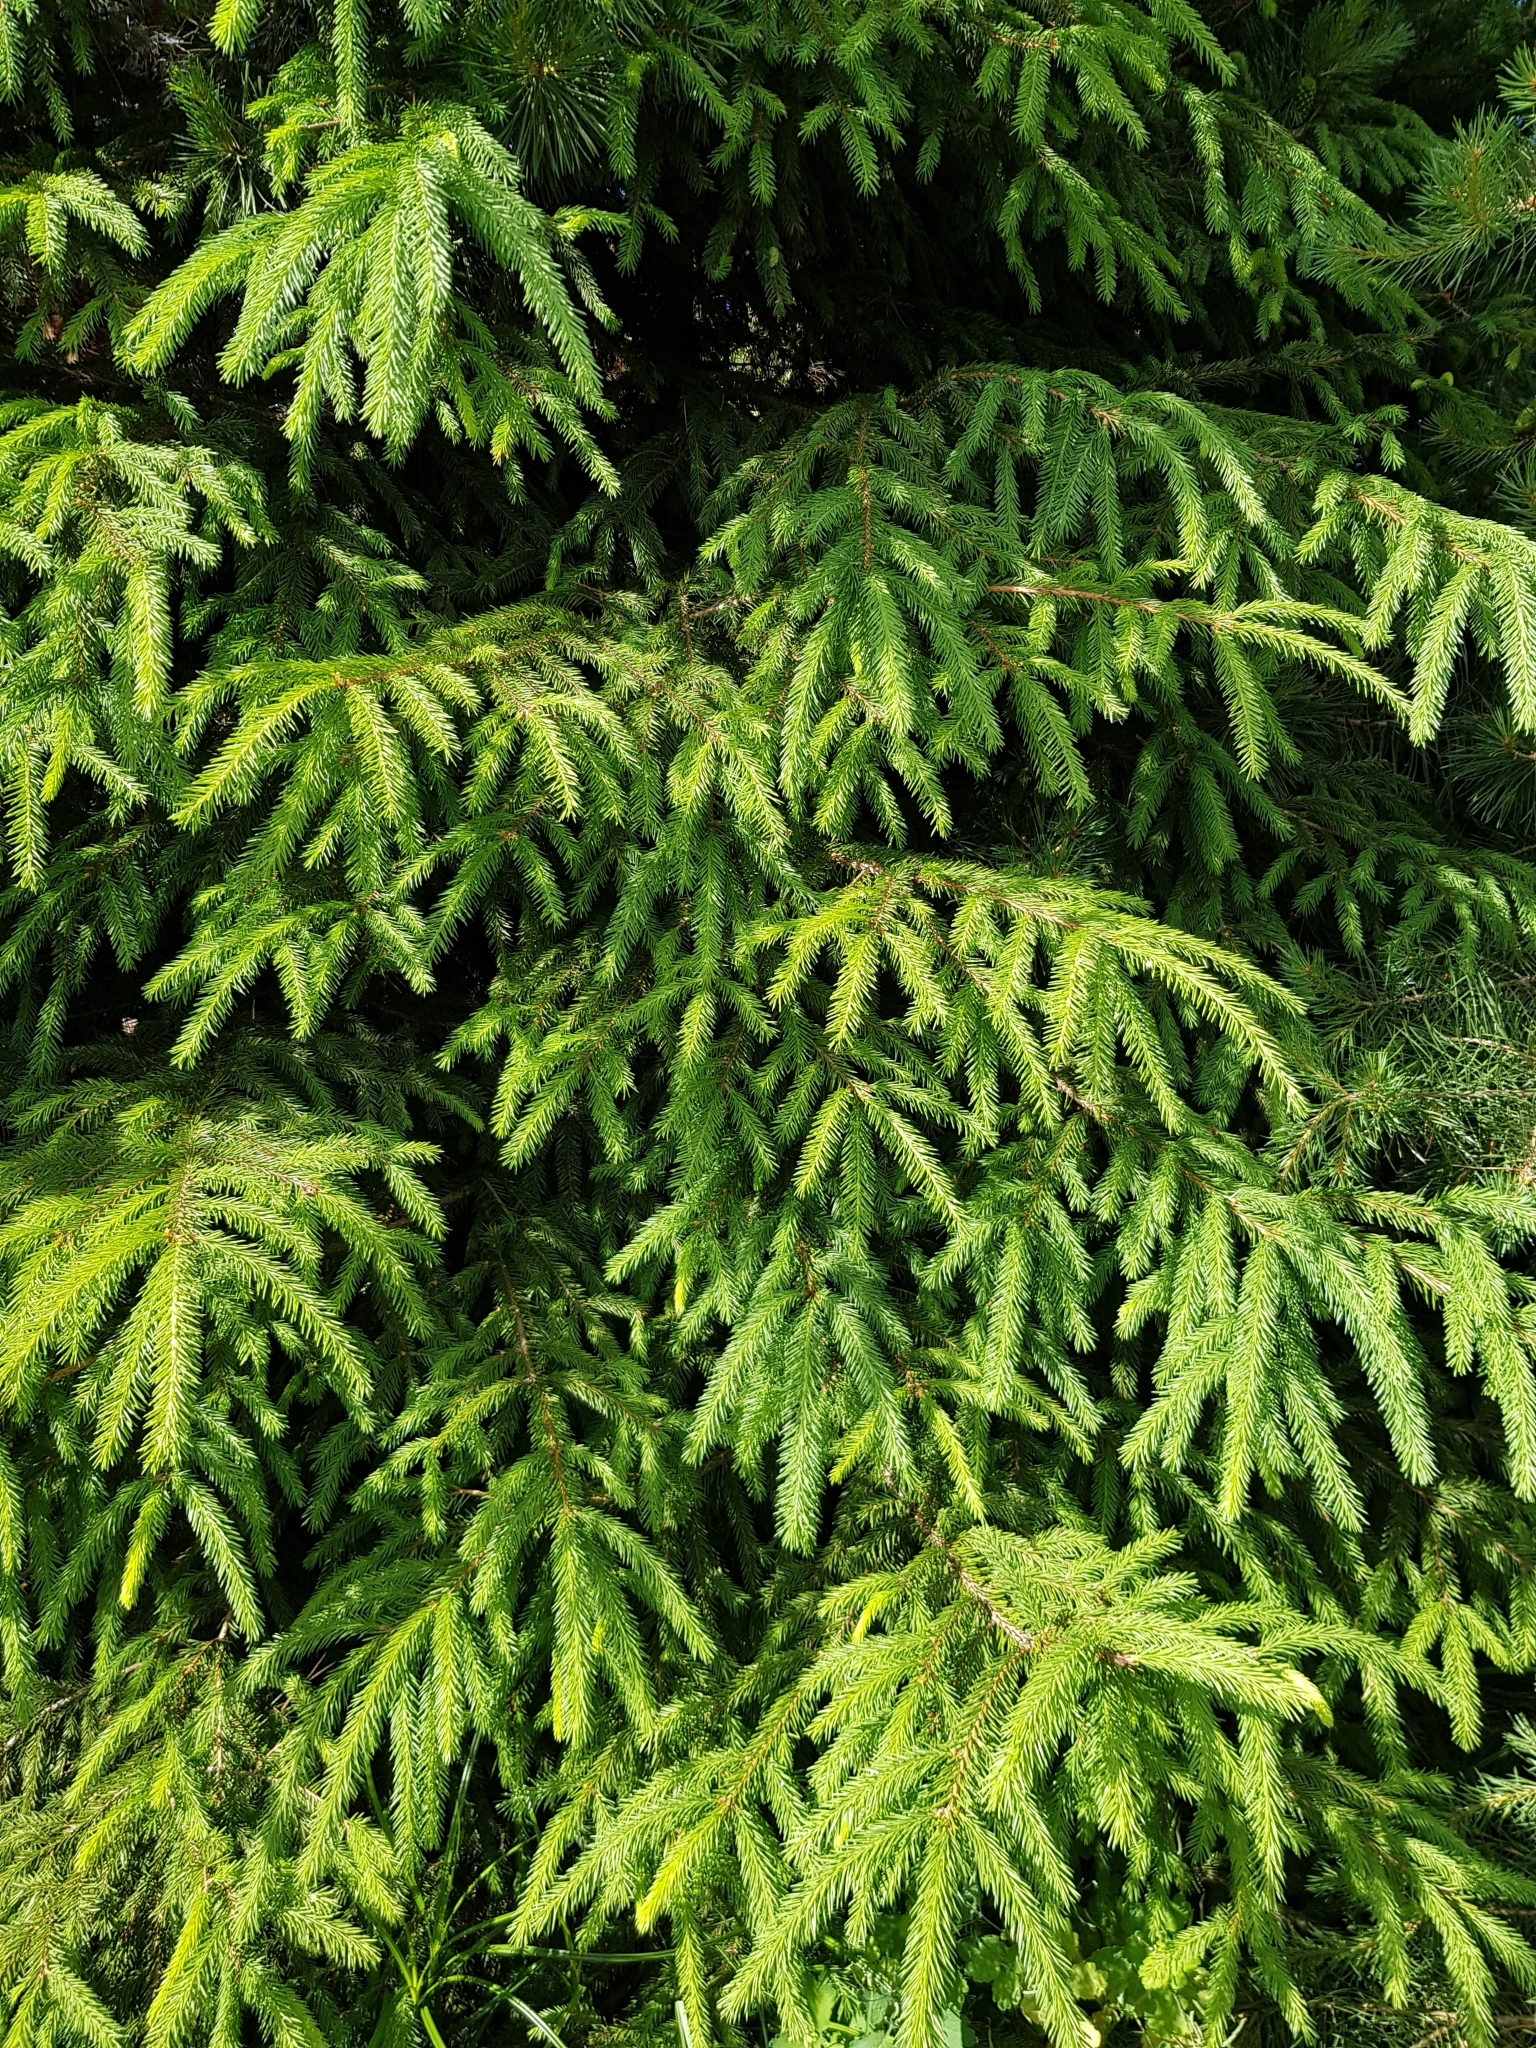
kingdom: Plantae
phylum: Tracheophyta
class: Pinopsida
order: Pinales
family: Pinaceae
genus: Picea
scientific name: Picea abies
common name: Norway spruce
